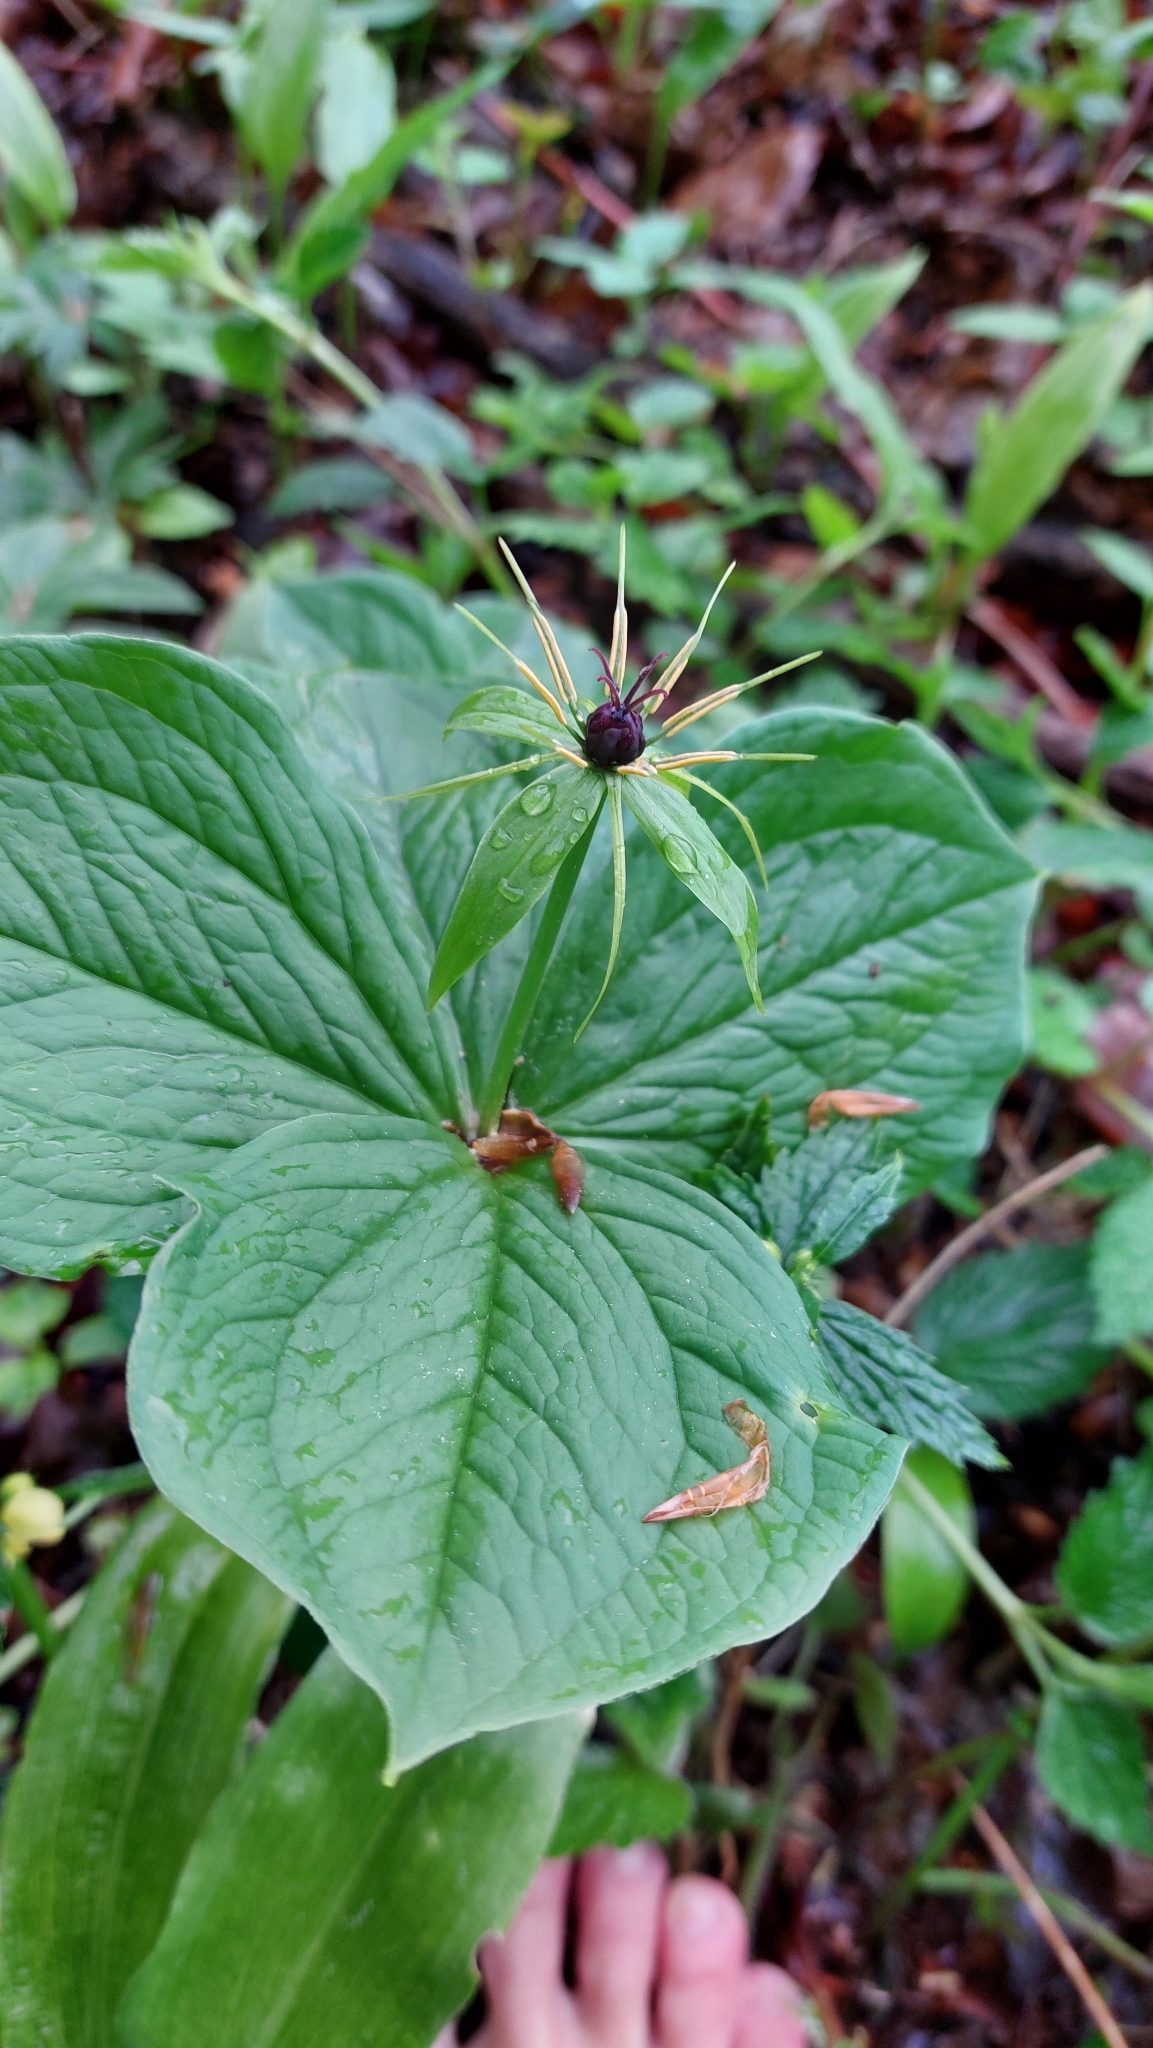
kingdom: Plantae
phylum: Tracheophyta
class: Liliopsida
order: Liliales
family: Melanthiaceae
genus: Paris
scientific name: Paris quadrifolia
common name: Herb-paris
